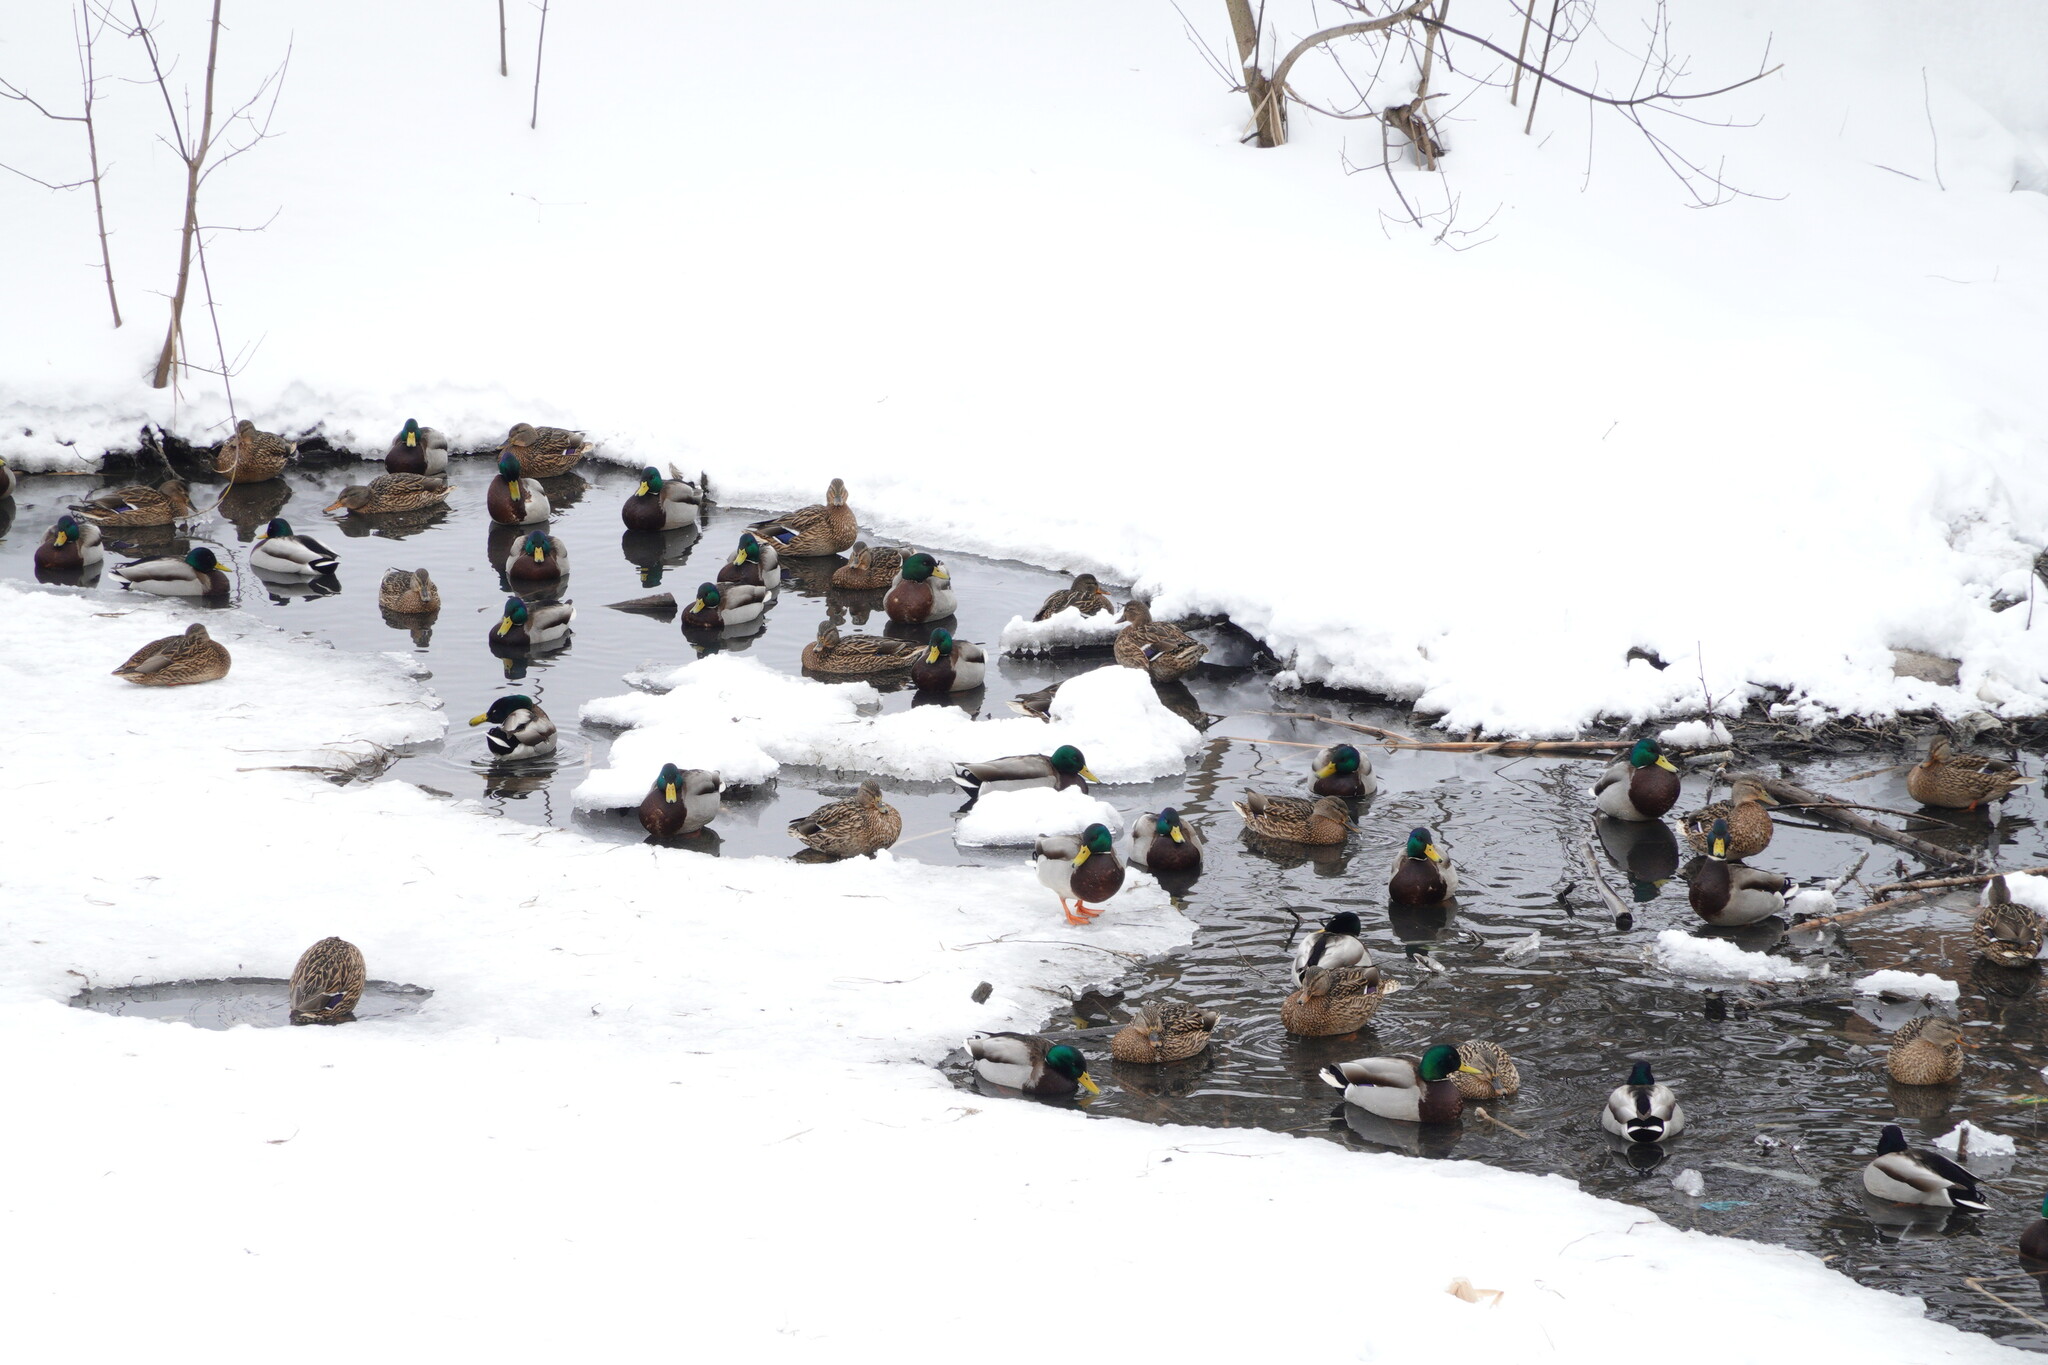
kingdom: Animalia
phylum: Chordata
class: Aves
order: Anseriformes
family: Anatidae
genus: Anas
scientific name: Anas platyrhynchos
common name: Mallard
